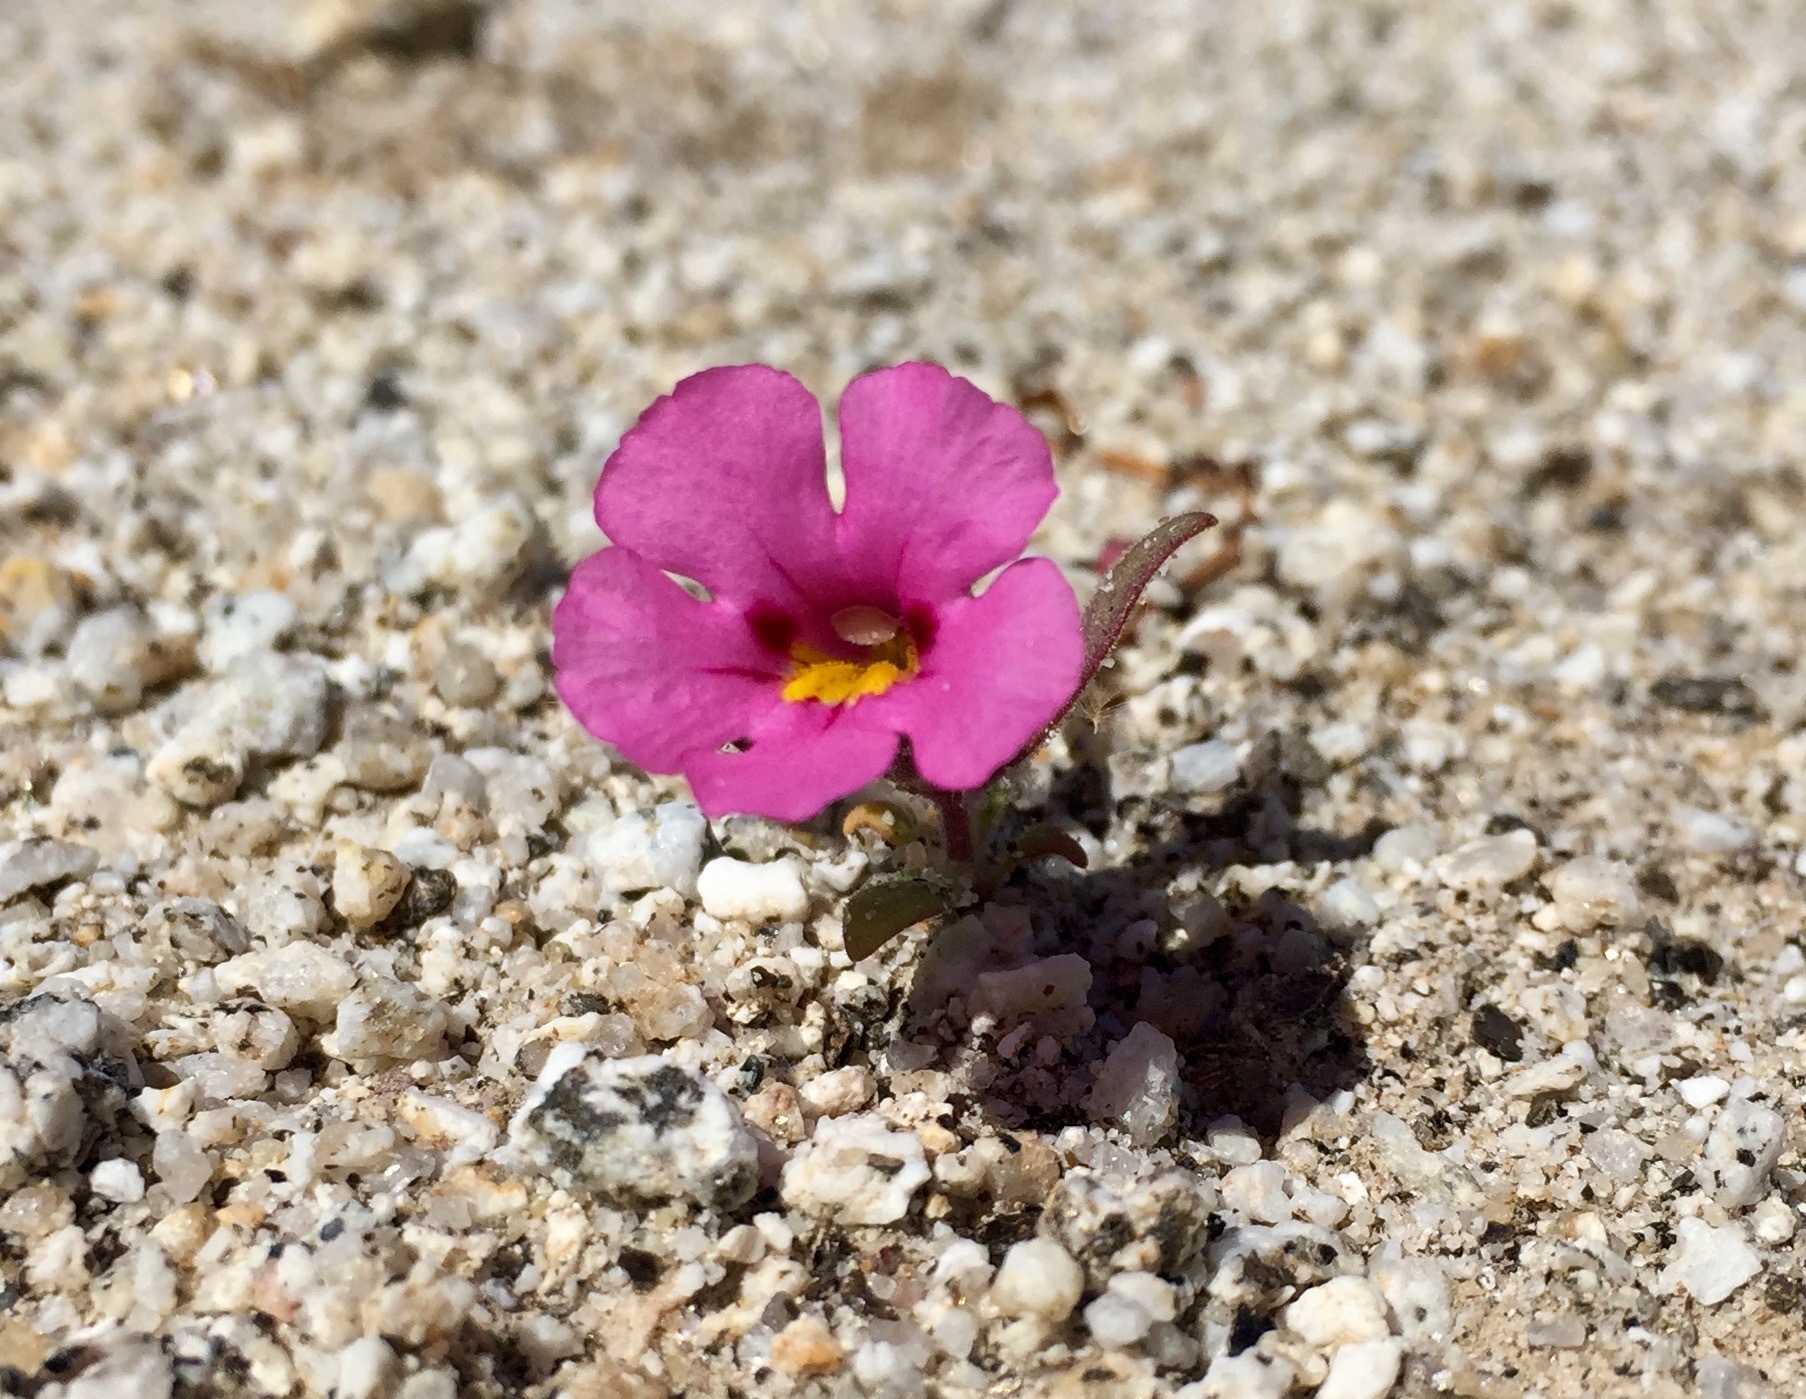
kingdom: Plantae
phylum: Tracheophyta
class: Magnoliopsida
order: Lamiales
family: Phrymaceae
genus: Diplacus
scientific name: Diplacus bigelovii
